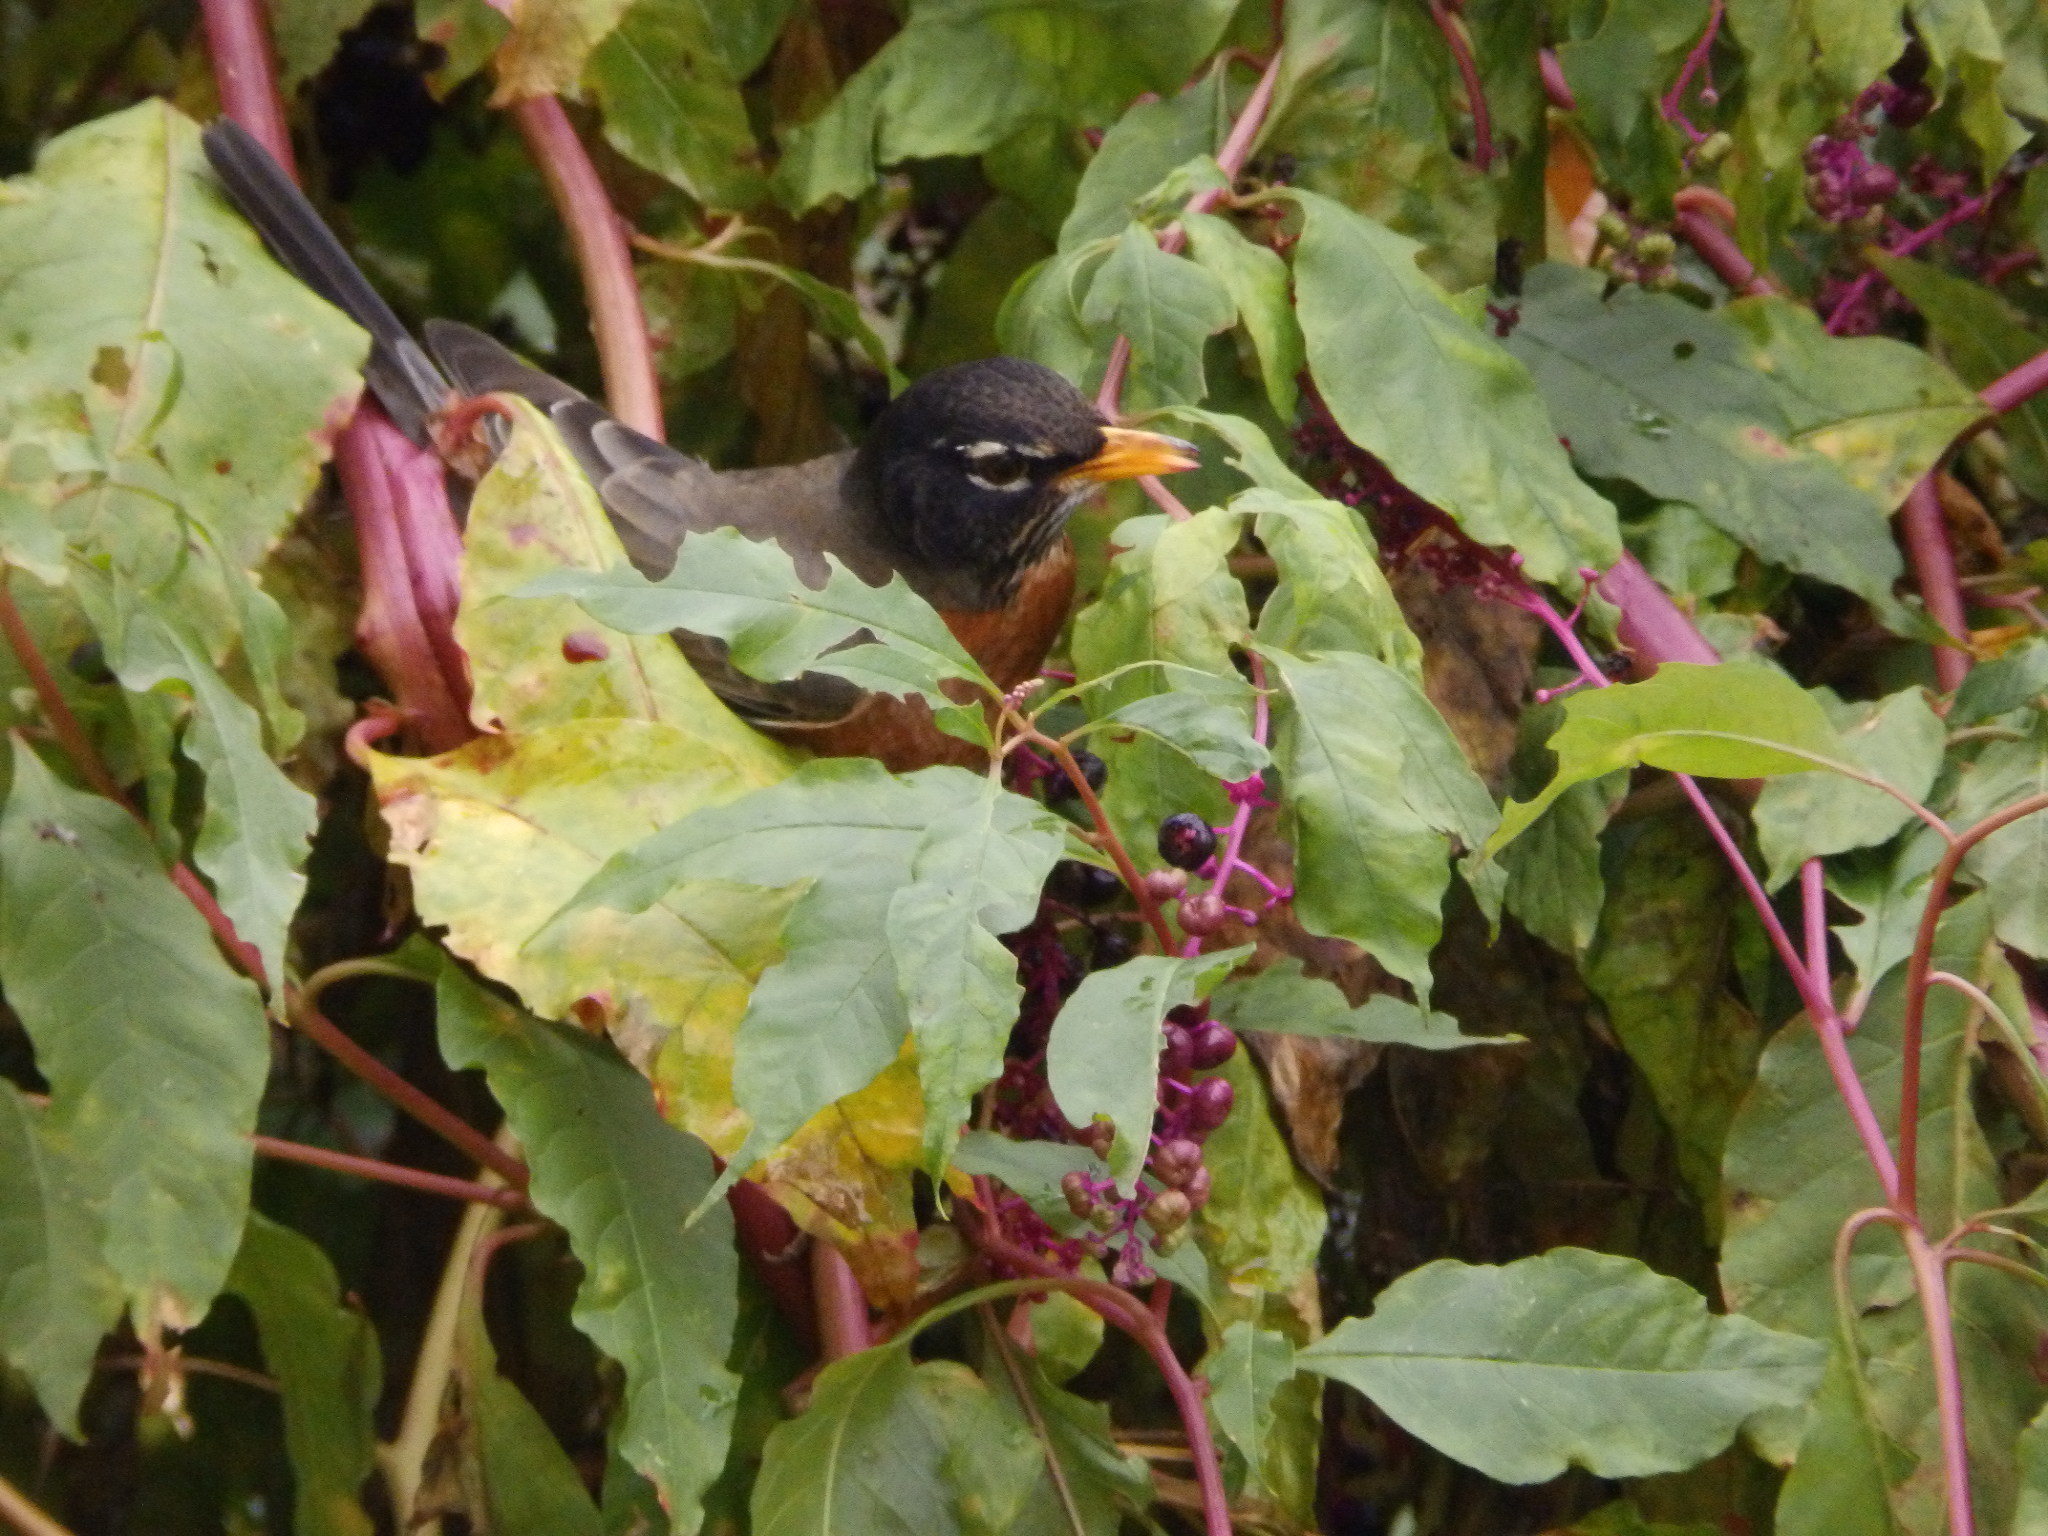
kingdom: Animalia
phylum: Chordata
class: Aves
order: Passeriformes
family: Turdidae
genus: Turdus
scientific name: Turdus migratorius
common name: American robin
